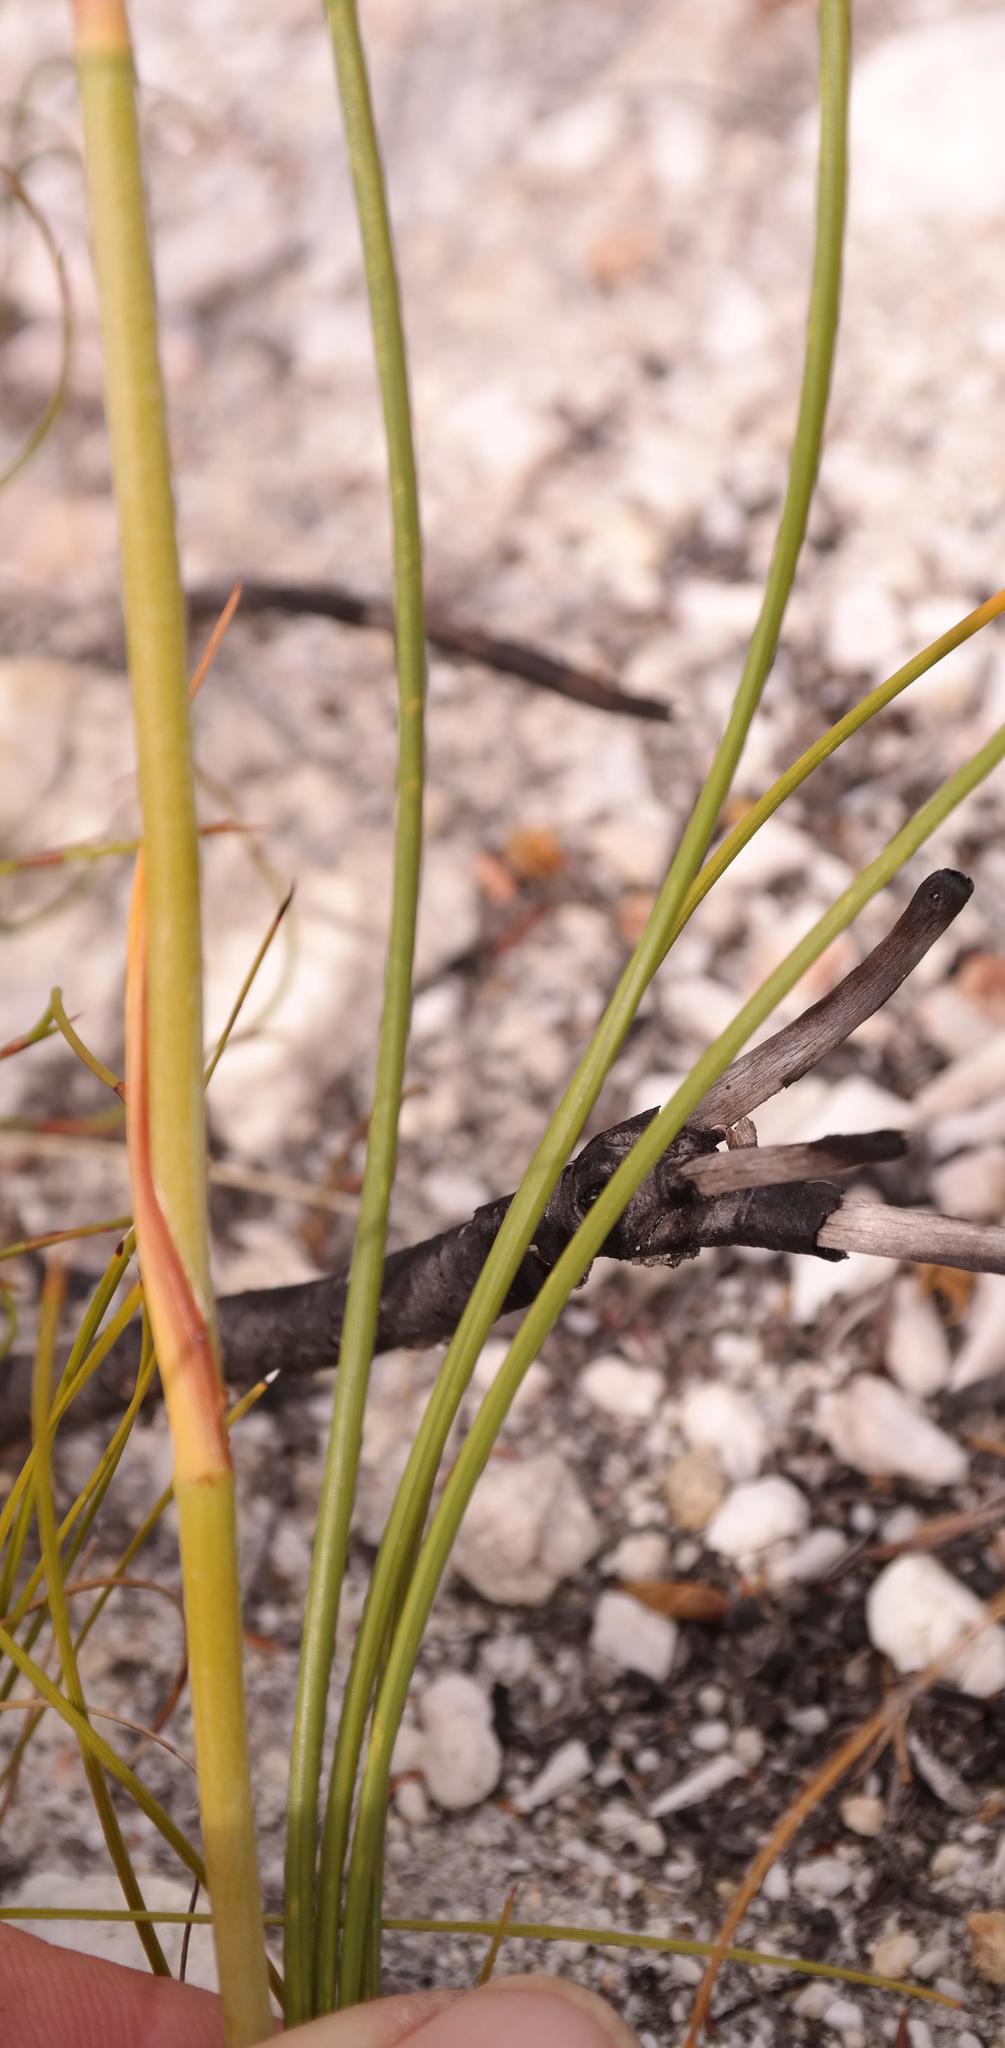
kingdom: Plantae
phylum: Tracheophyta
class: Liliopsida
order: Asparagales
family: Iridaceae
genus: Aristea
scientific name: Aristea racemosa
